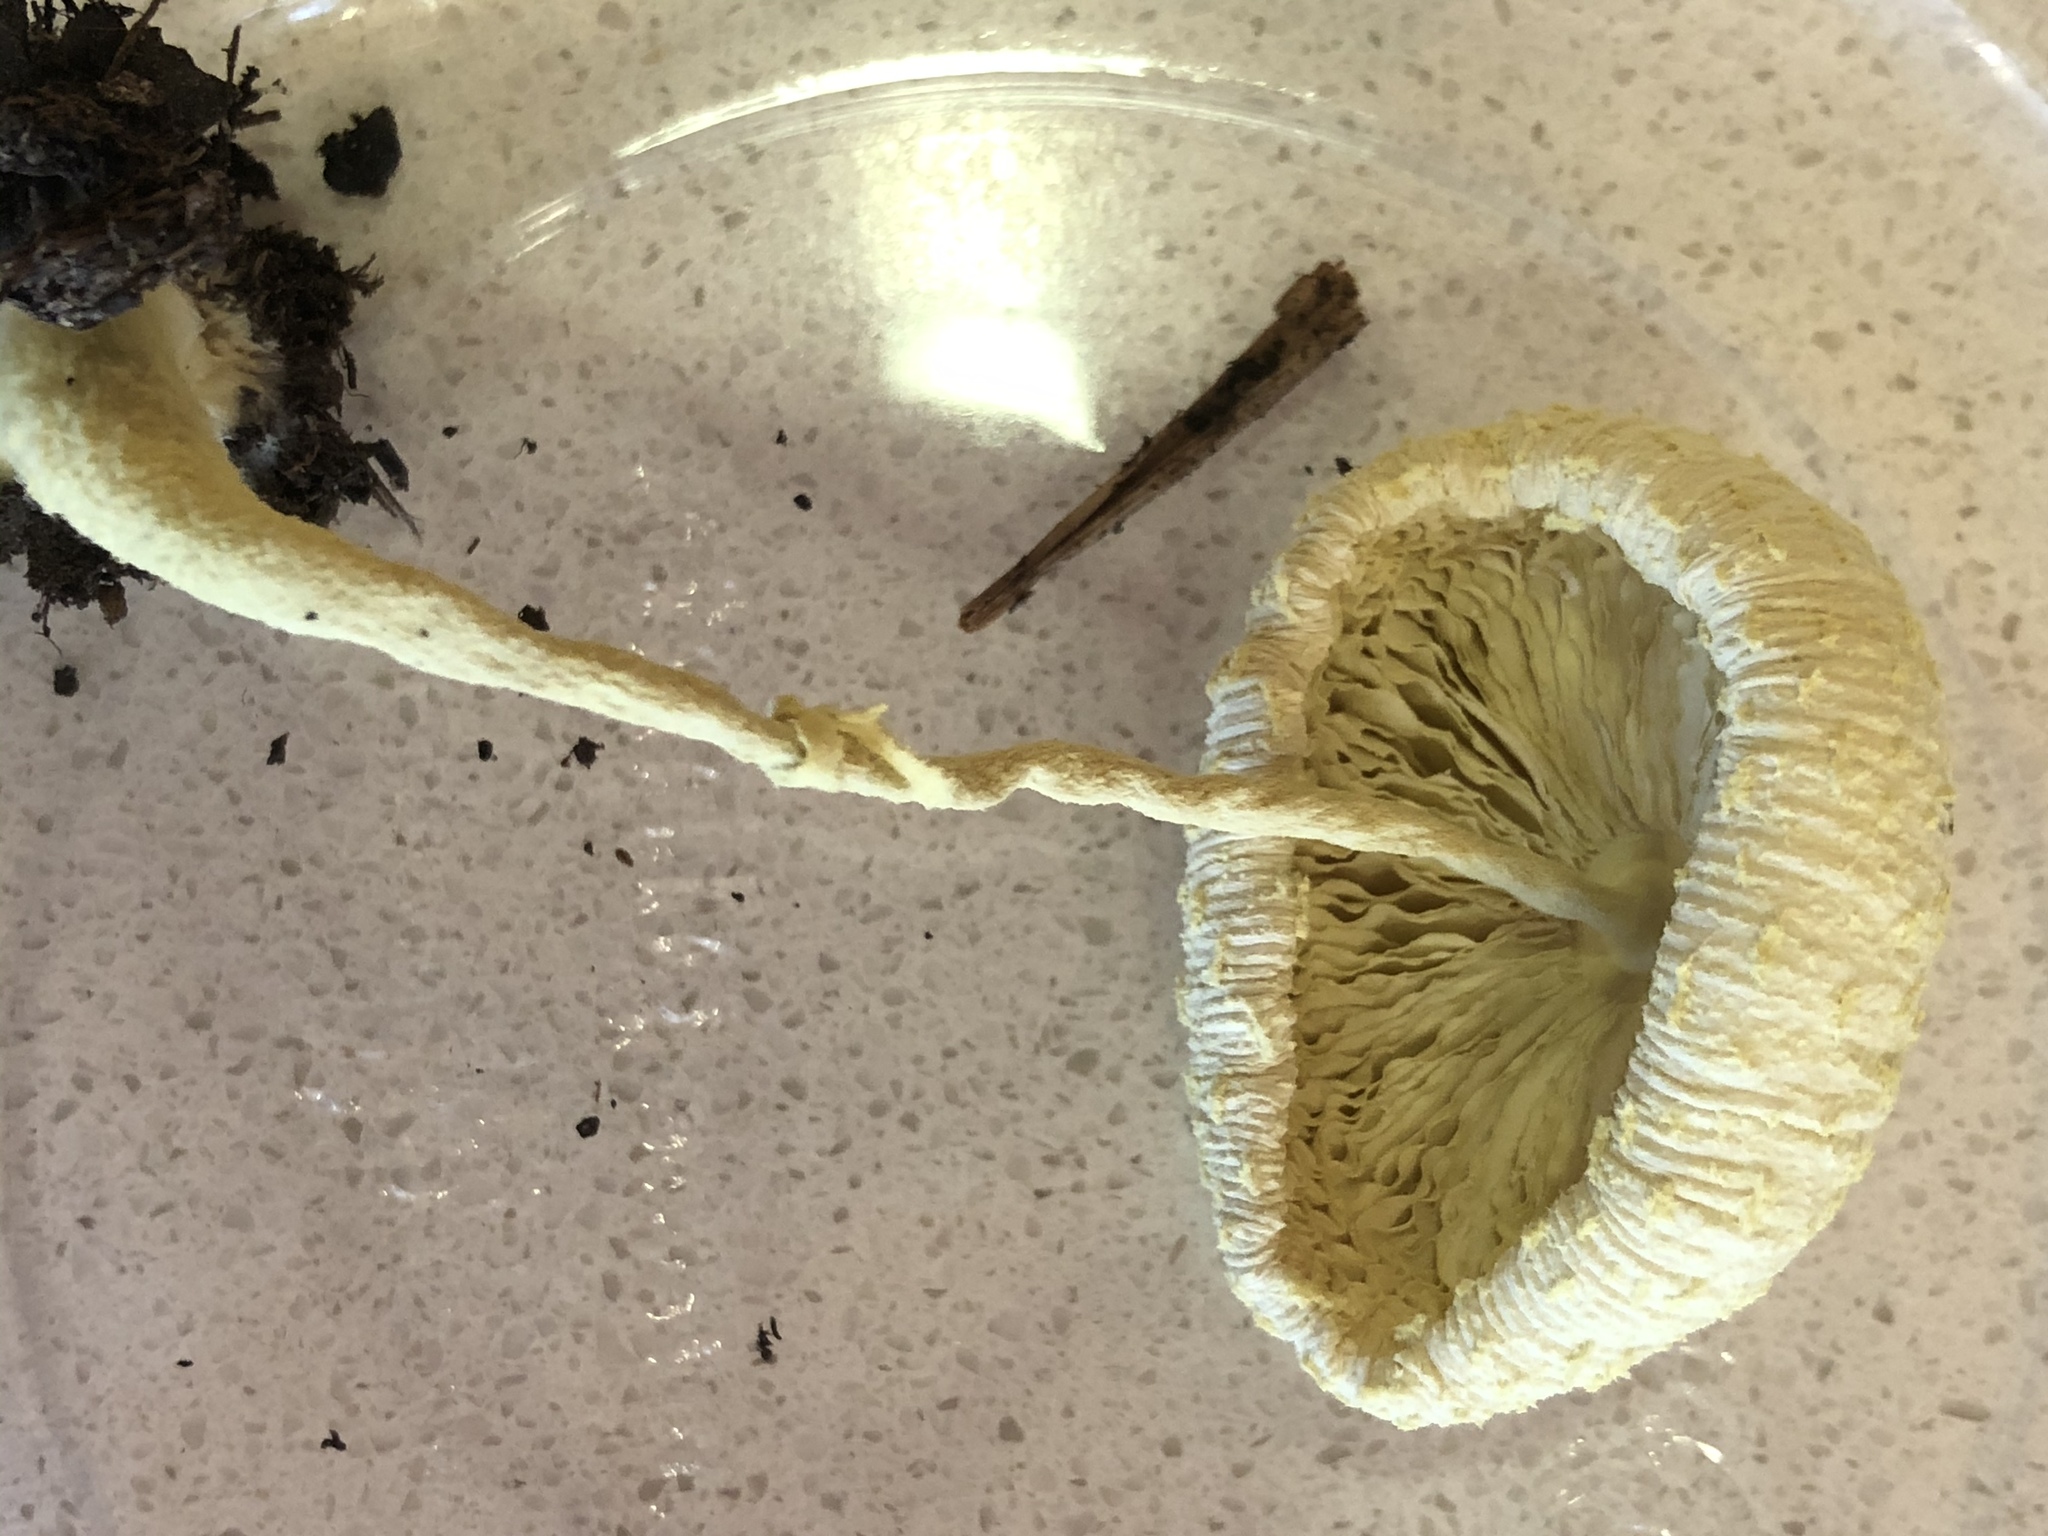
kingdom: Fungi
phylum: Basidiomycota
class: Agaricomycetes
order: Agaricales
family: Agaricaceae
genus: Leucocoprinus
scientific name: Leucocoprinus birnbaumii
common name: Plantpot dapperling
